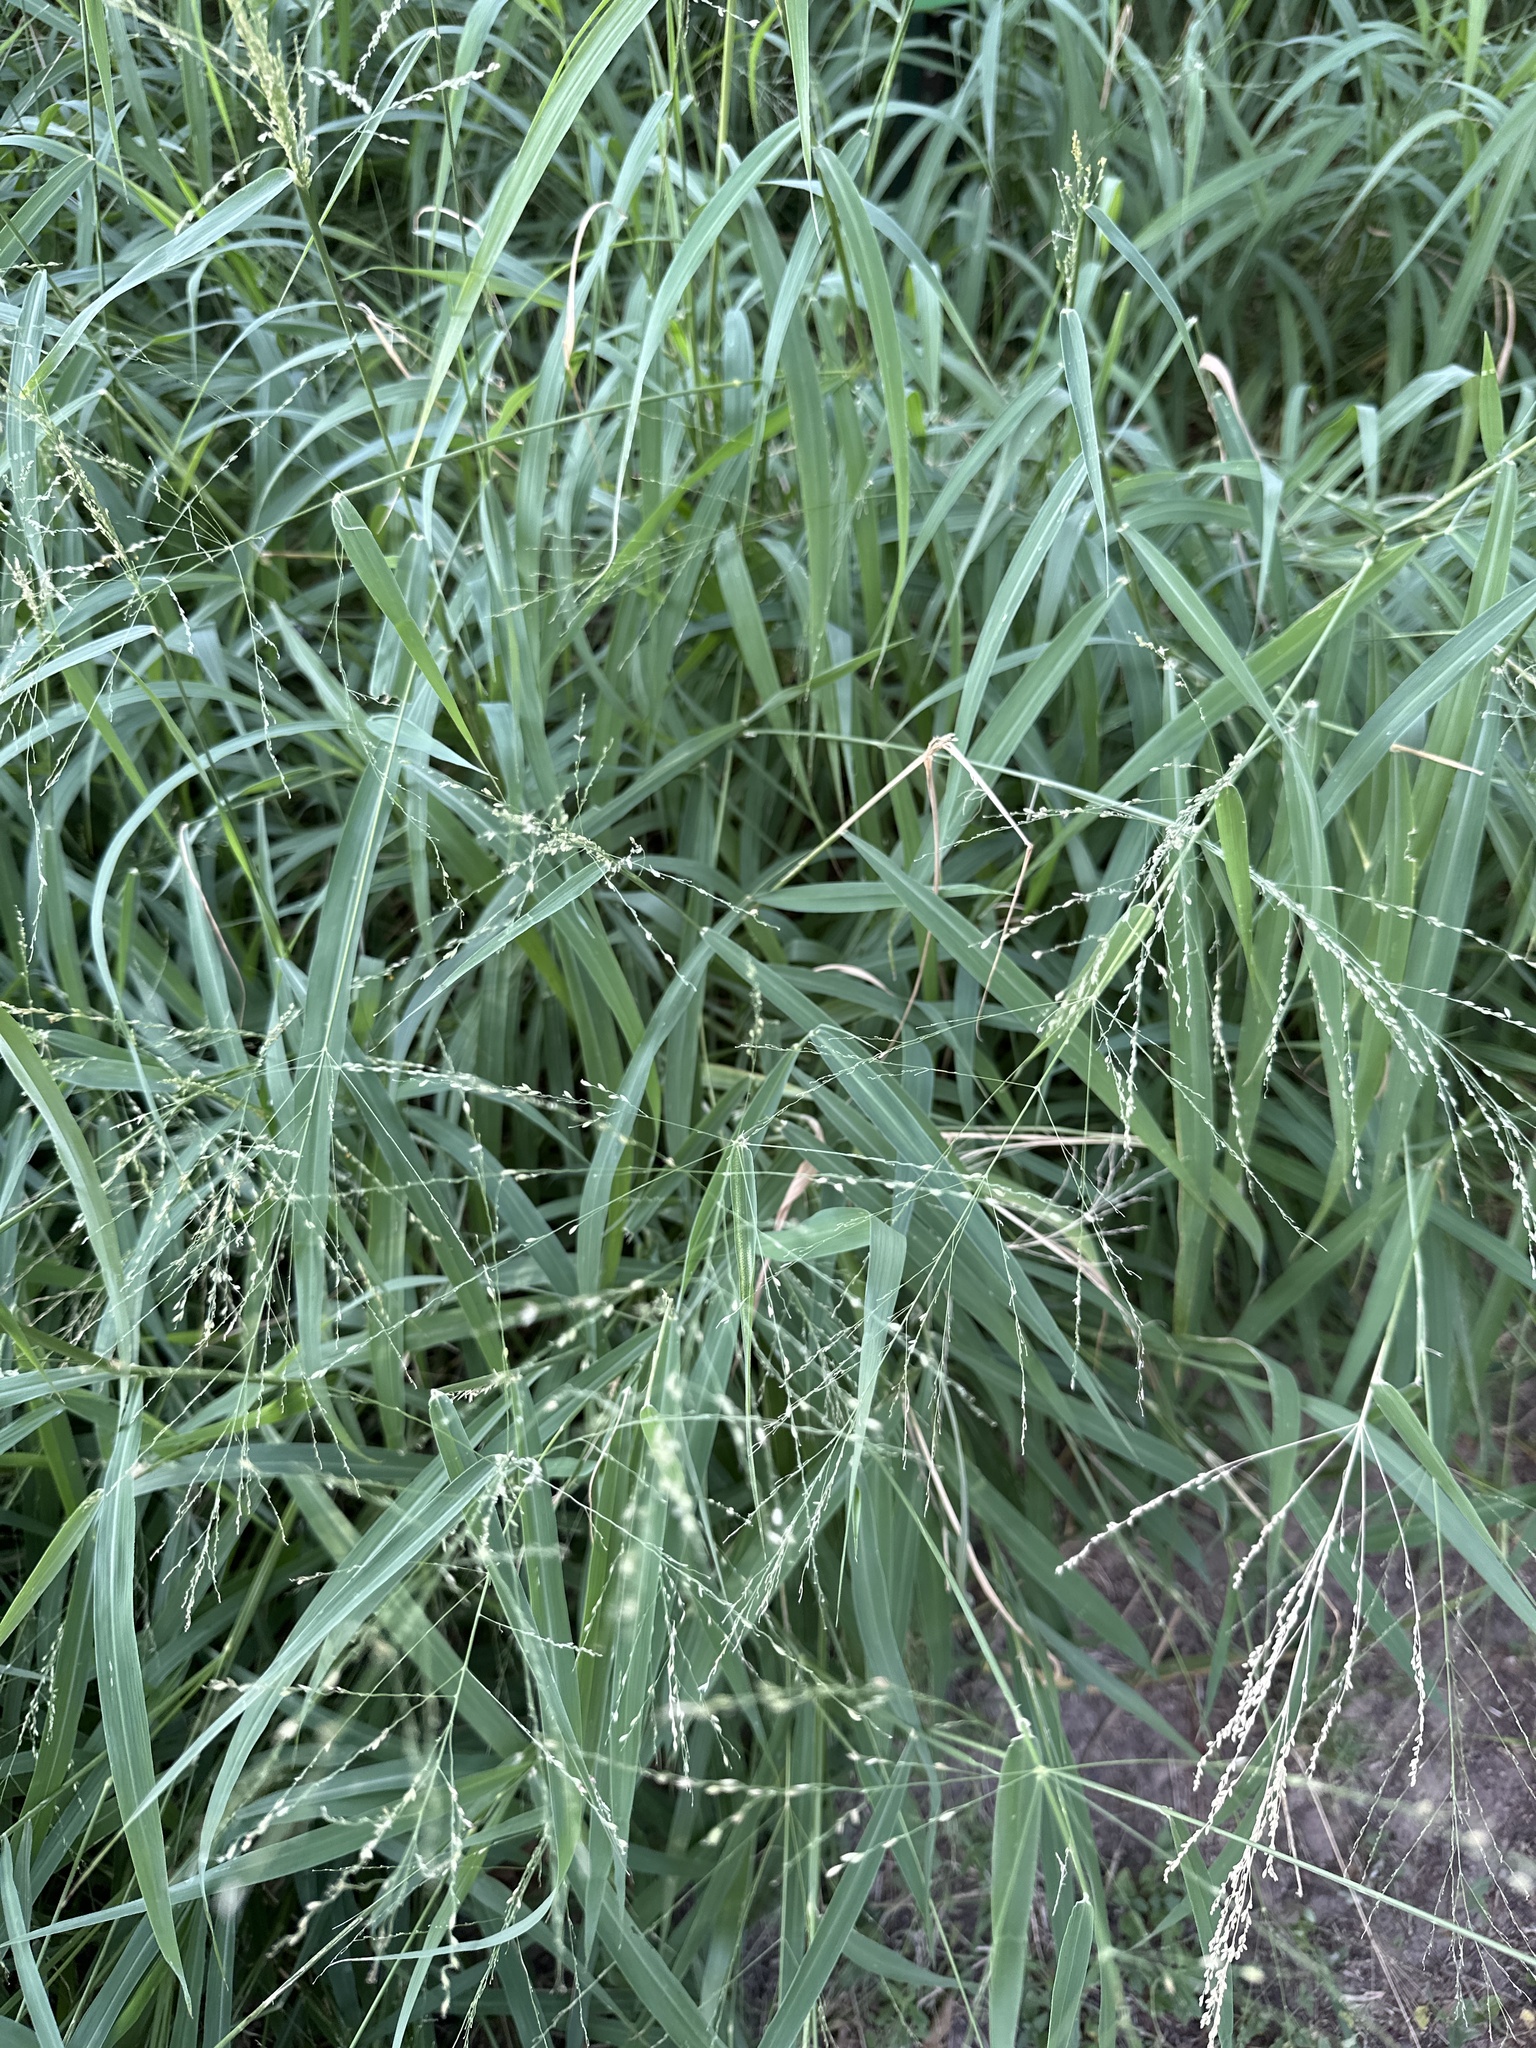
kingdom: Plantae
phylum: Tracheophyta
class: Liliopsida
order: Poales
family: Poaceae
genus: Megathyrsus
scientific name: Megathyrsus maximus
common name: Guineagrass
